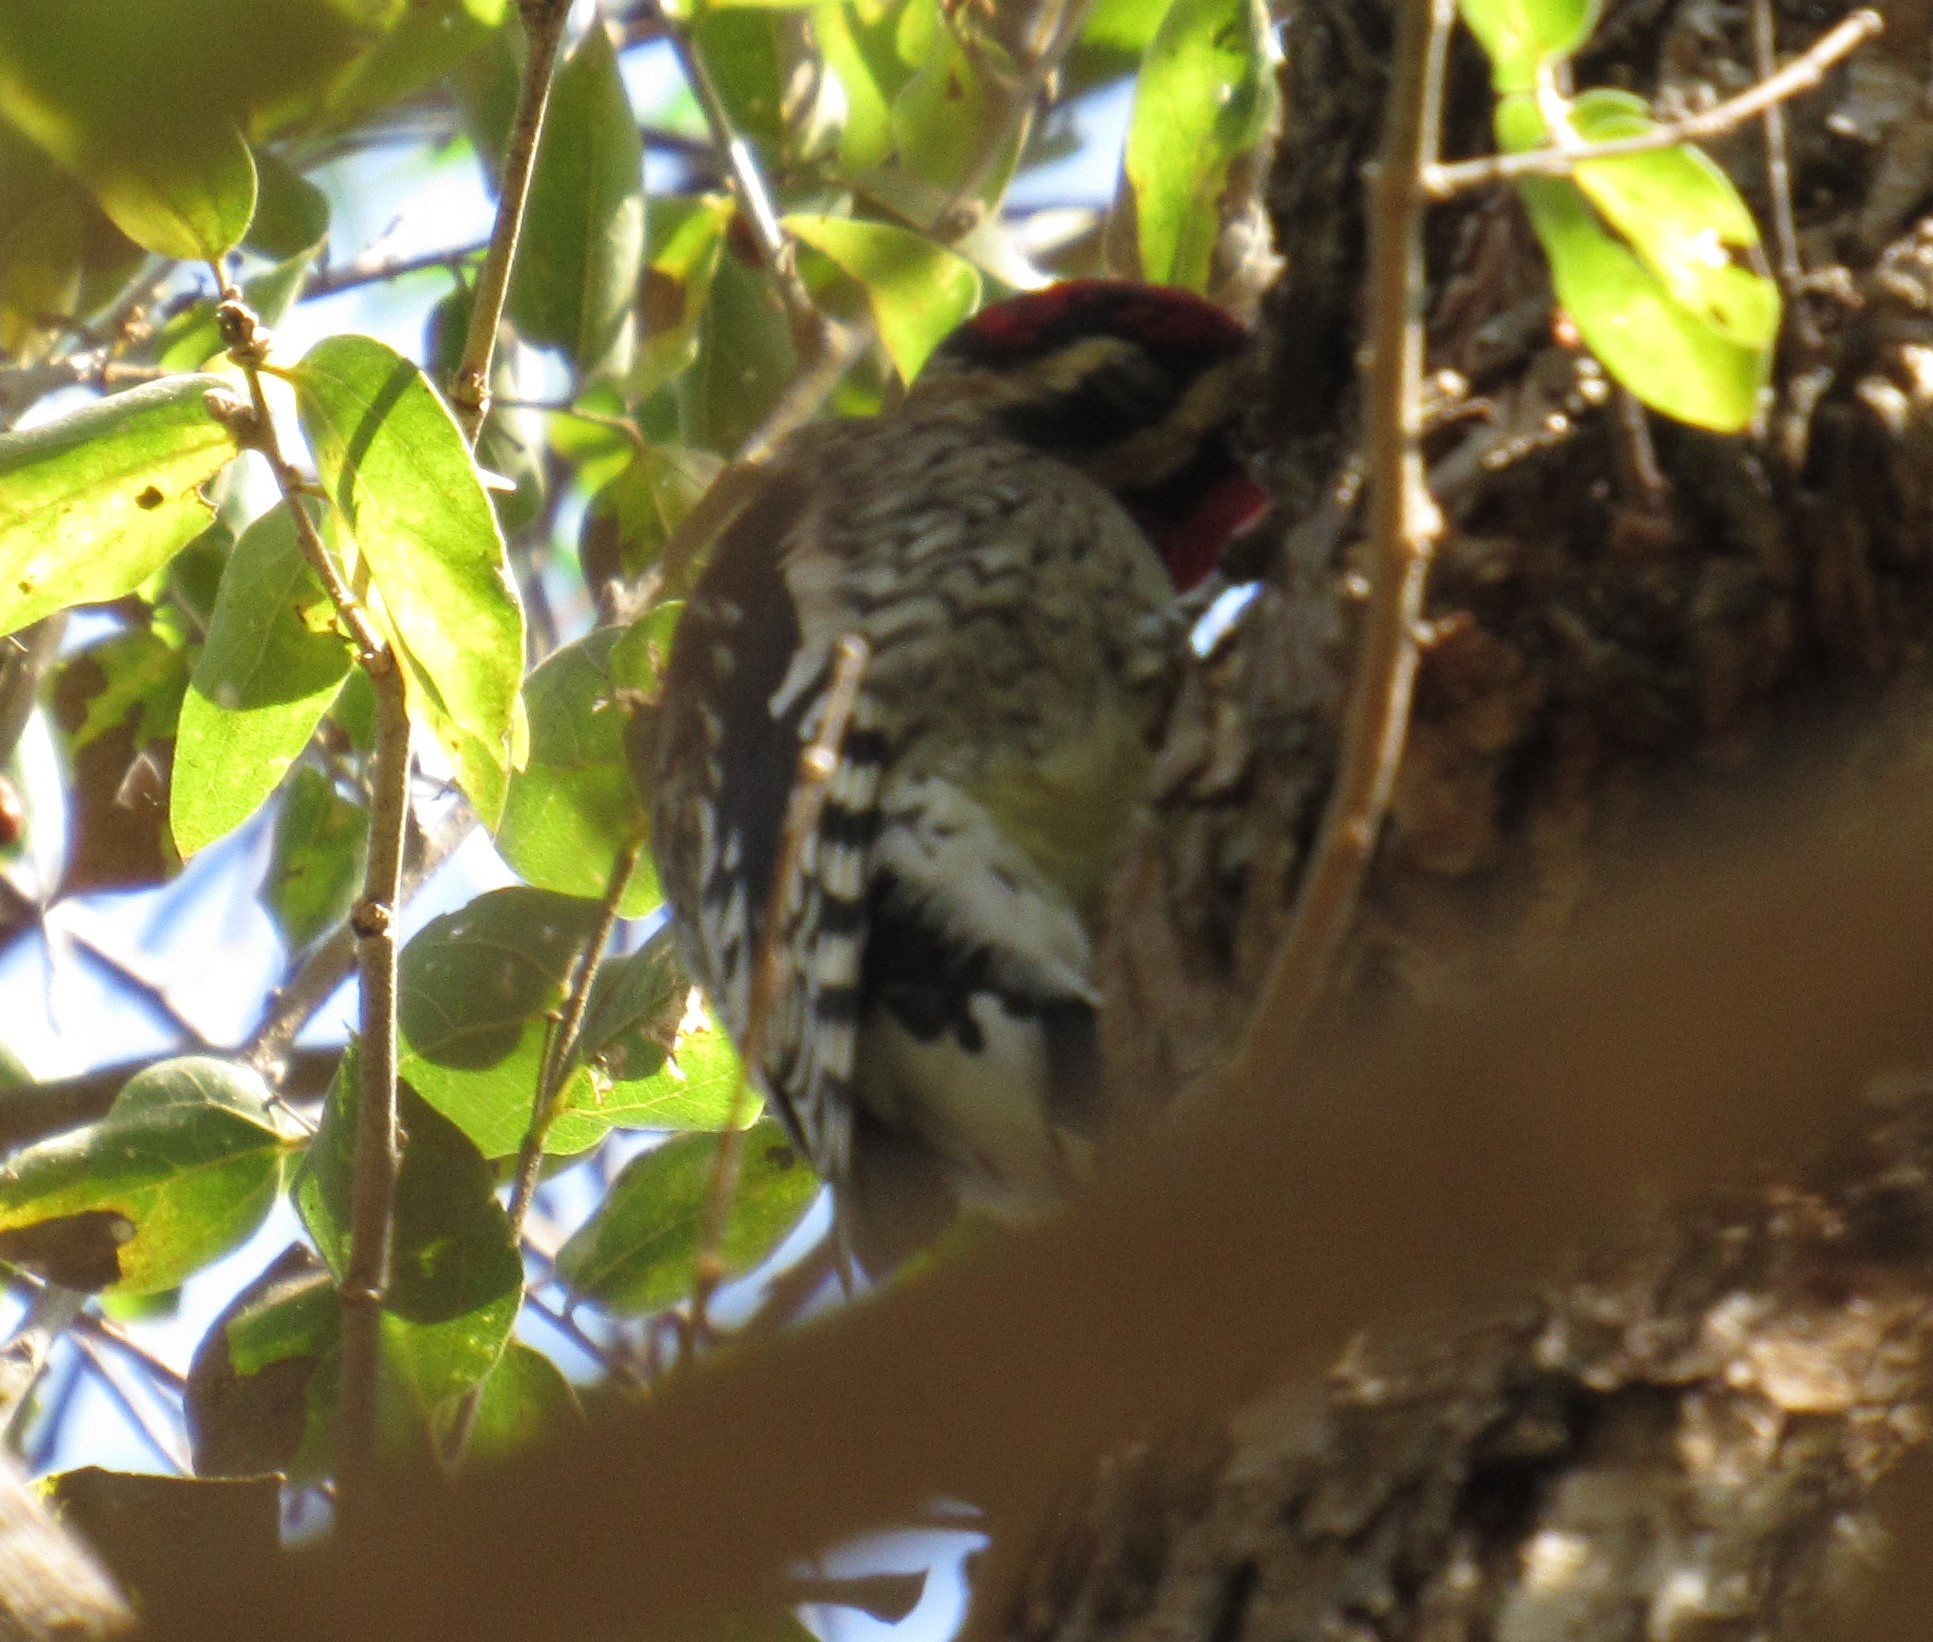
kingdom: Animalia
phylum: Chordata
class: Aves
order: Piciformes
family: Picidae
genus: Sphyrapicus
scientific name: Sphyrapicus varius
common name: Yellow-bellied sapsucker
